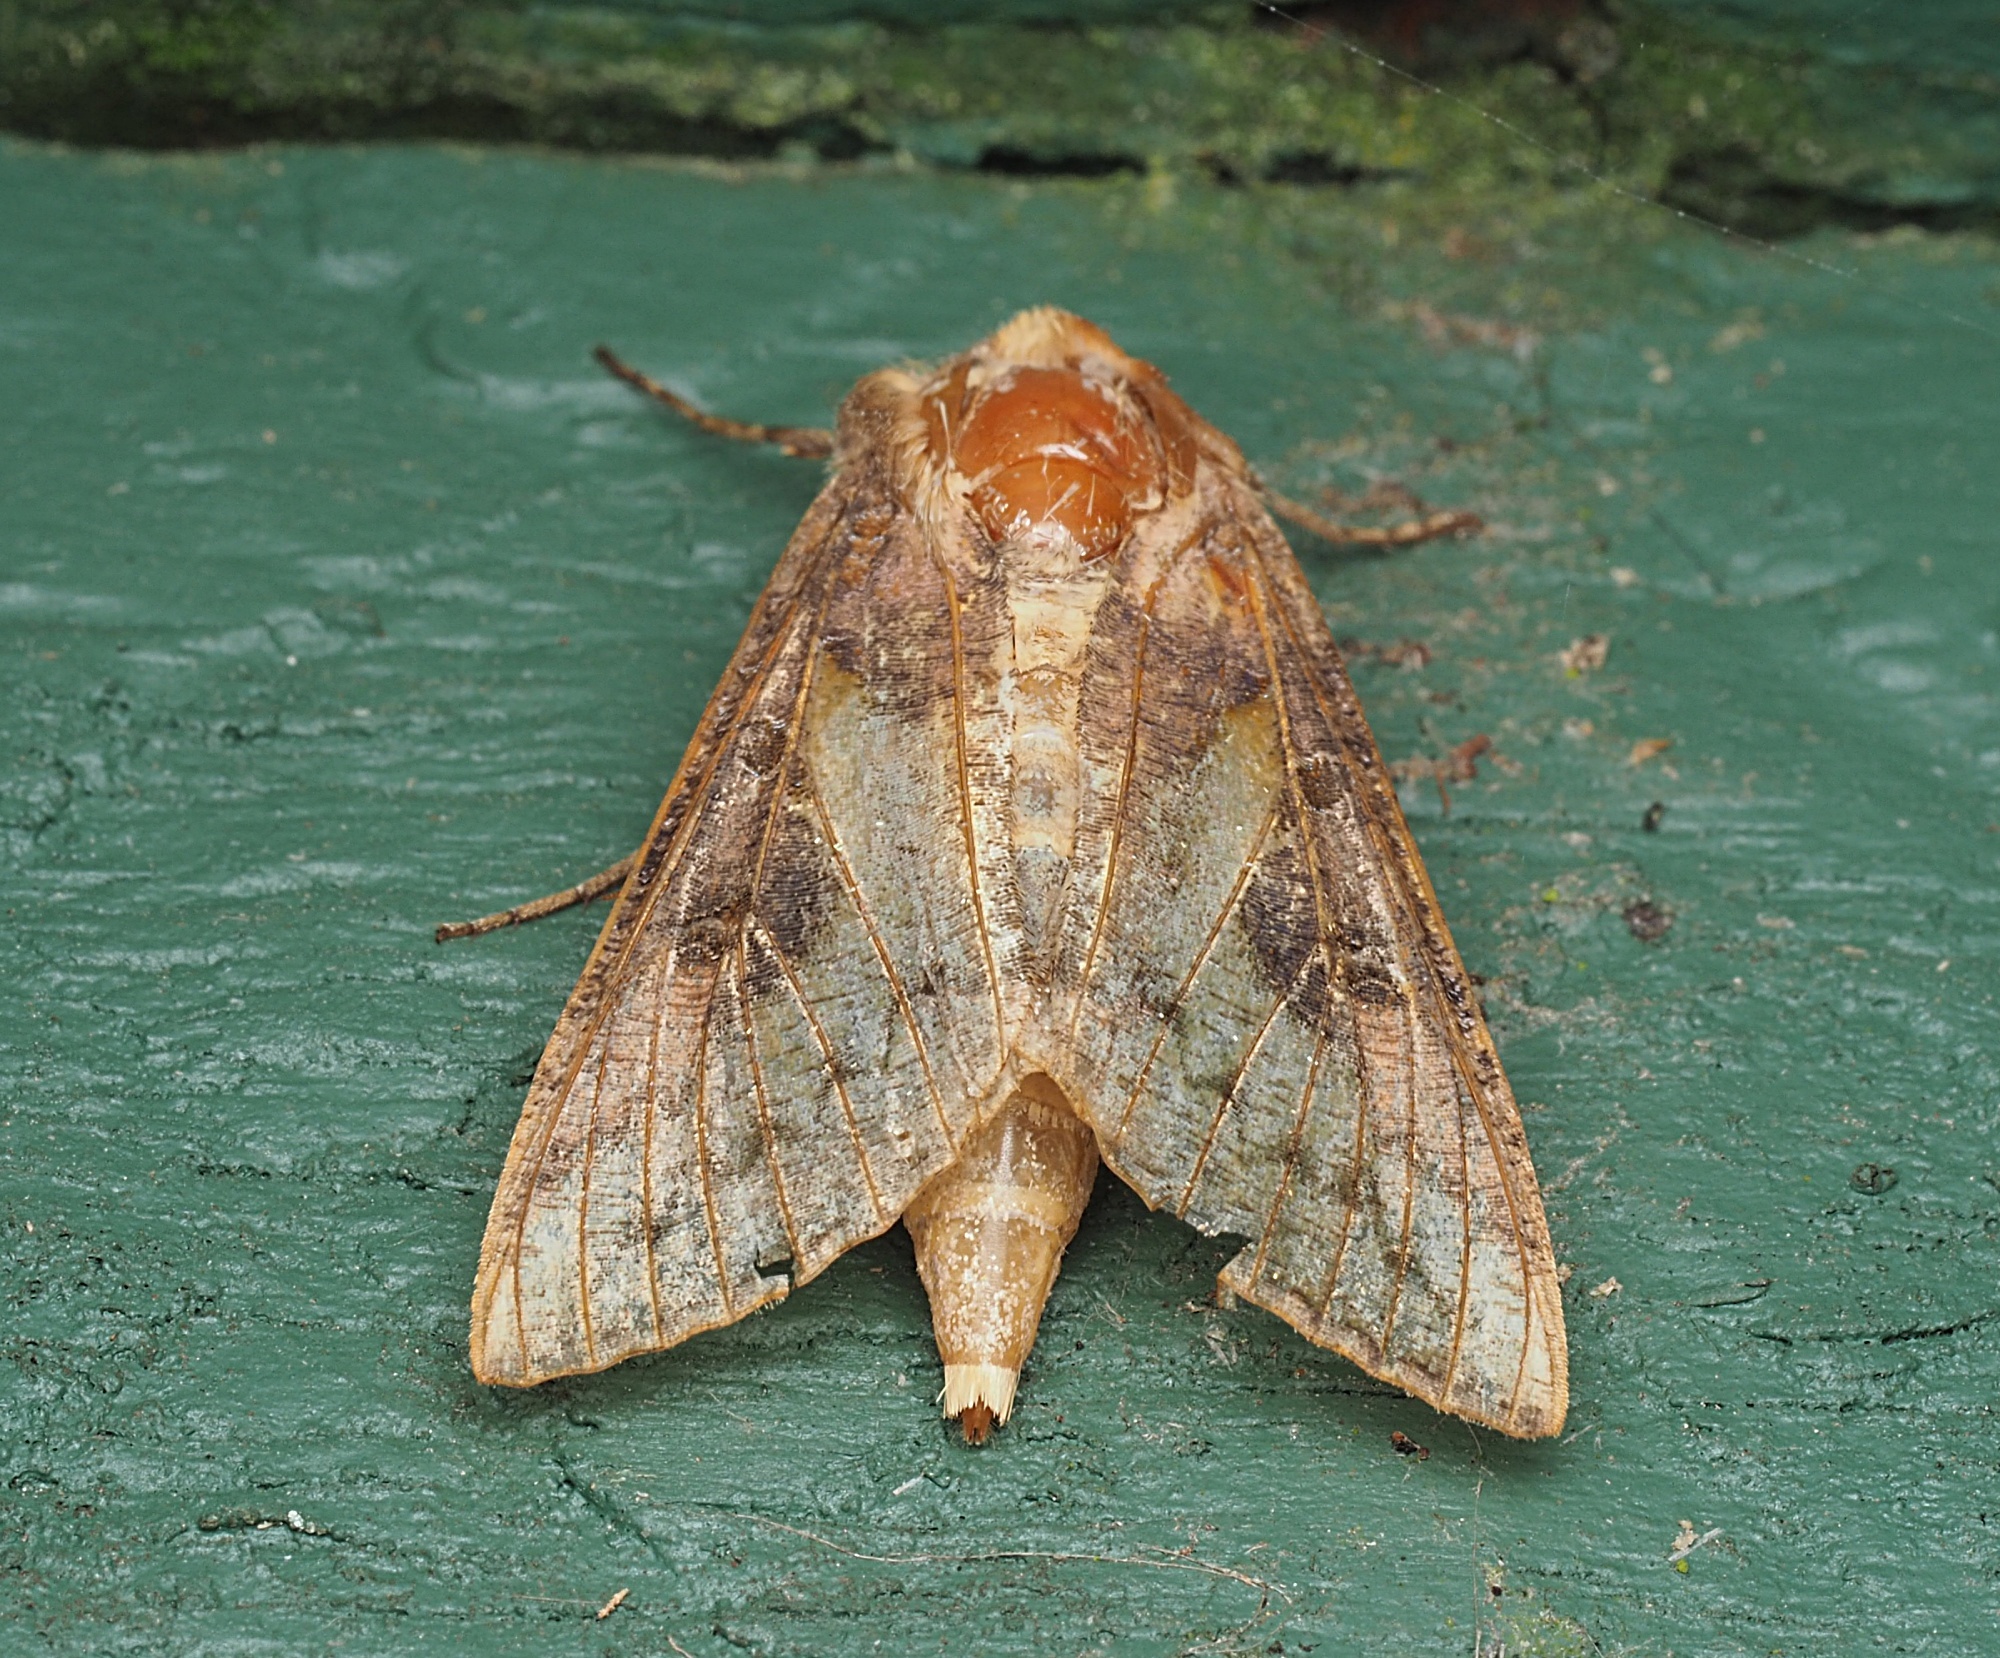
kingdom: Animalia
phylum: Arthropoda
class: Insecta
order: Lepidoptera
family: Noctuidae
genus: Thysanoplusia
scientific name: Thysanoplusia orichalcea
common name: Slender burnished brass, golden plusia
